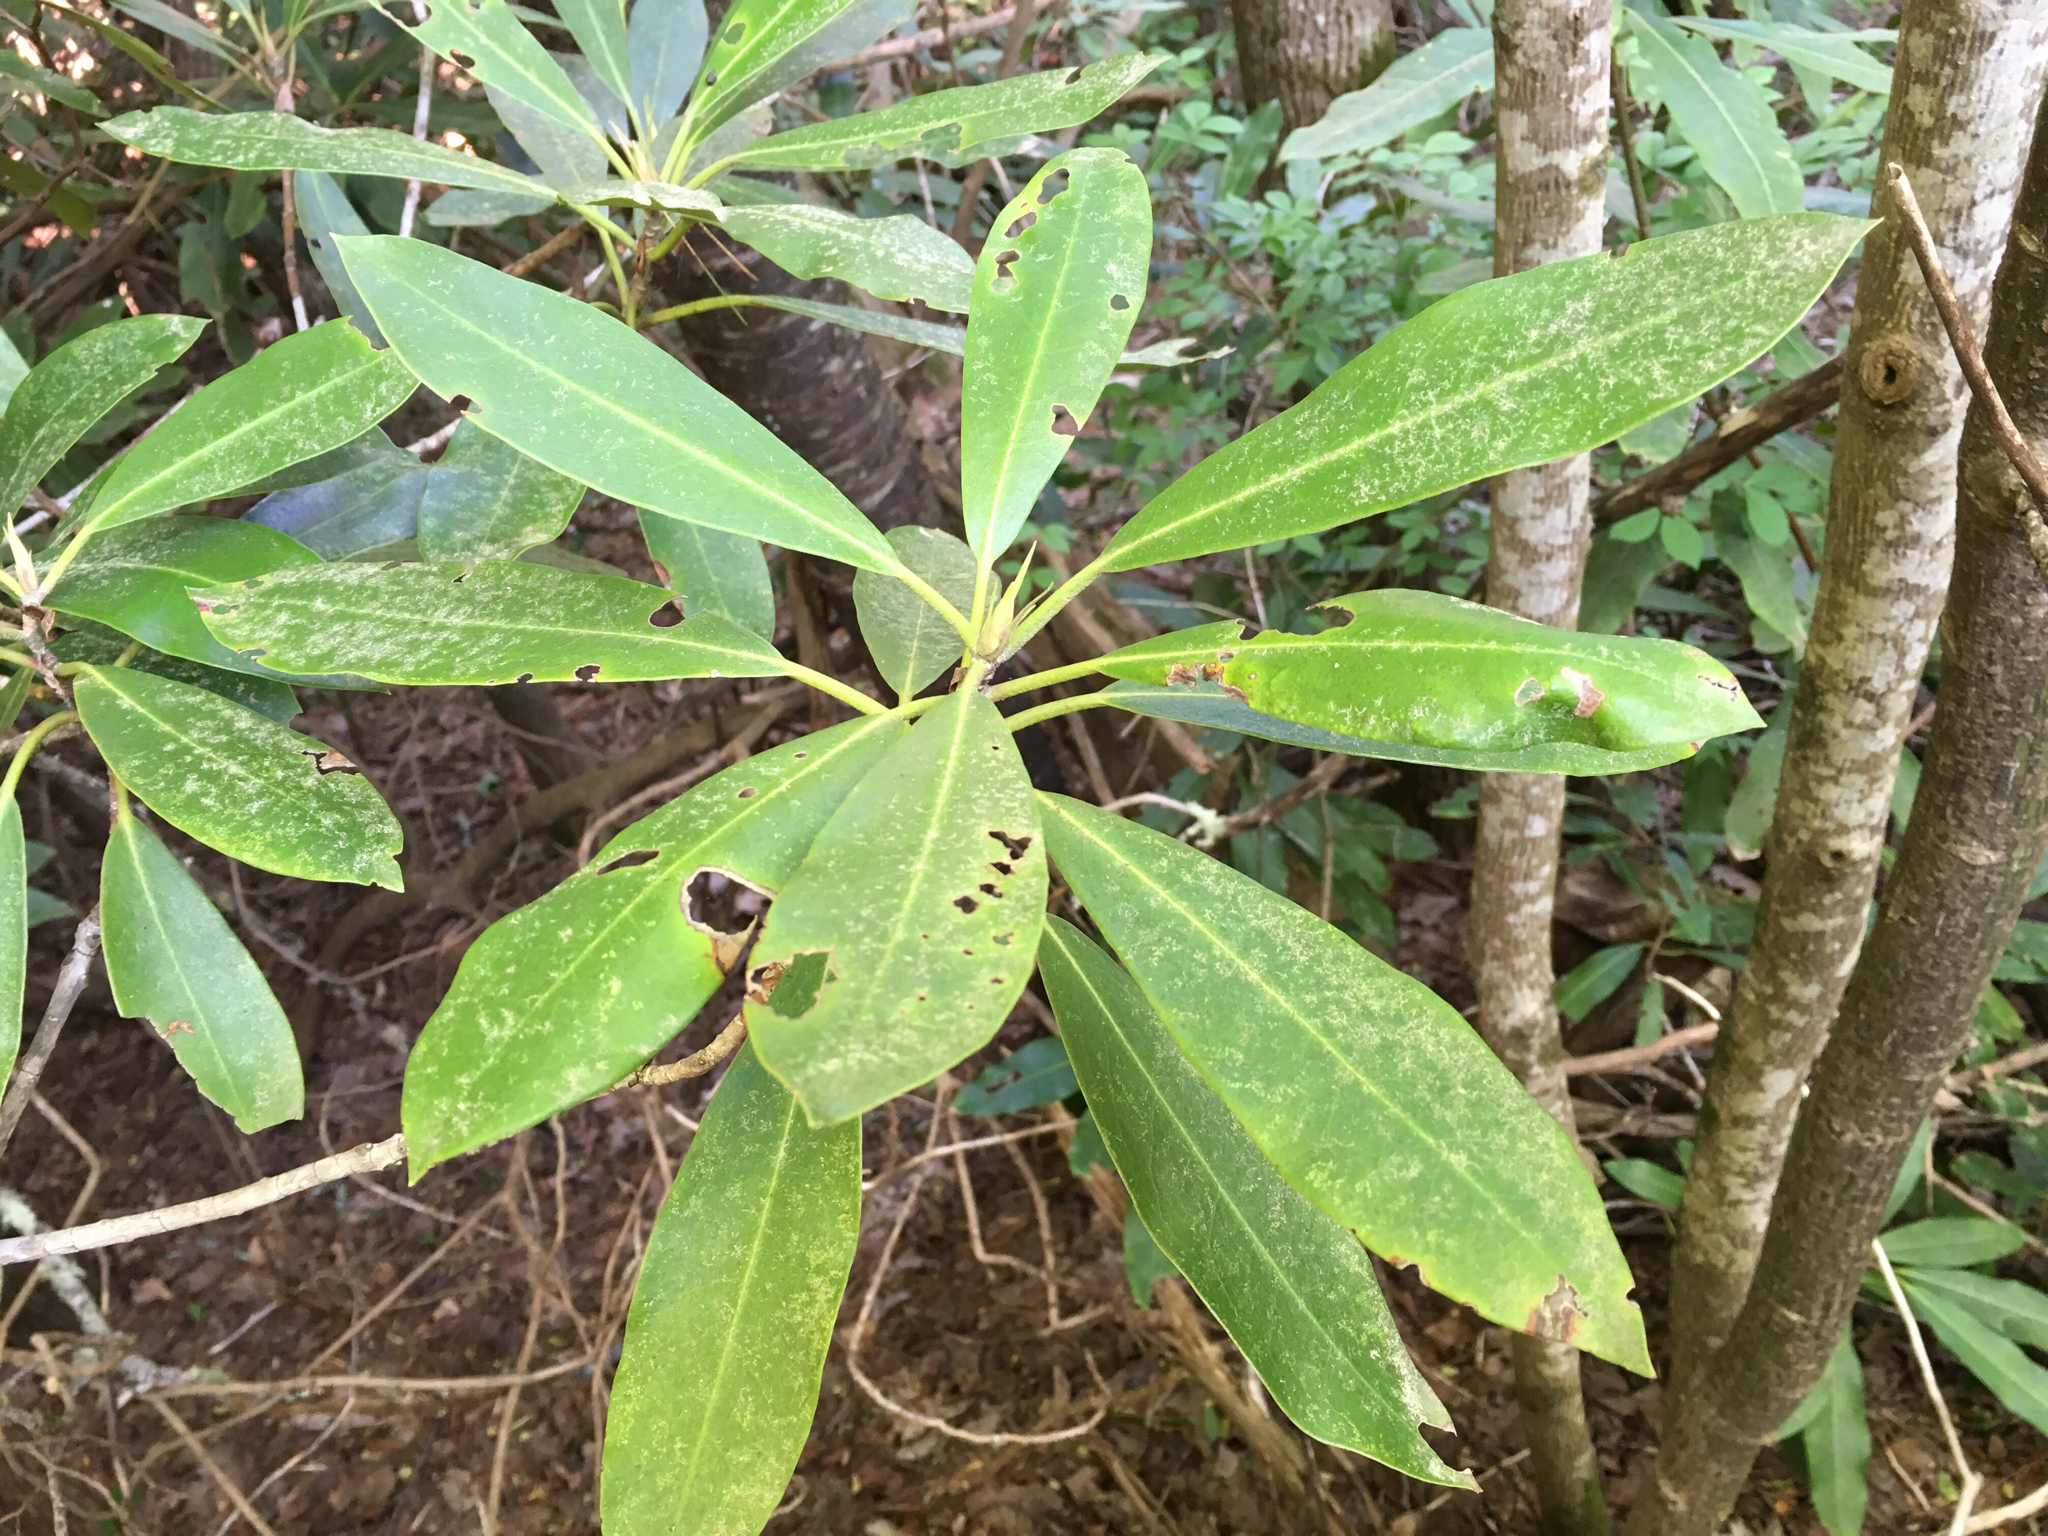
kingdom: Plantae
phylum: Tracheophyta
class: Magnoliopsida
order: Ericales
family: Ericaceae
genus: Rhododendron
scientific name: Rhododendron maximum
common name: Great rhododendron
